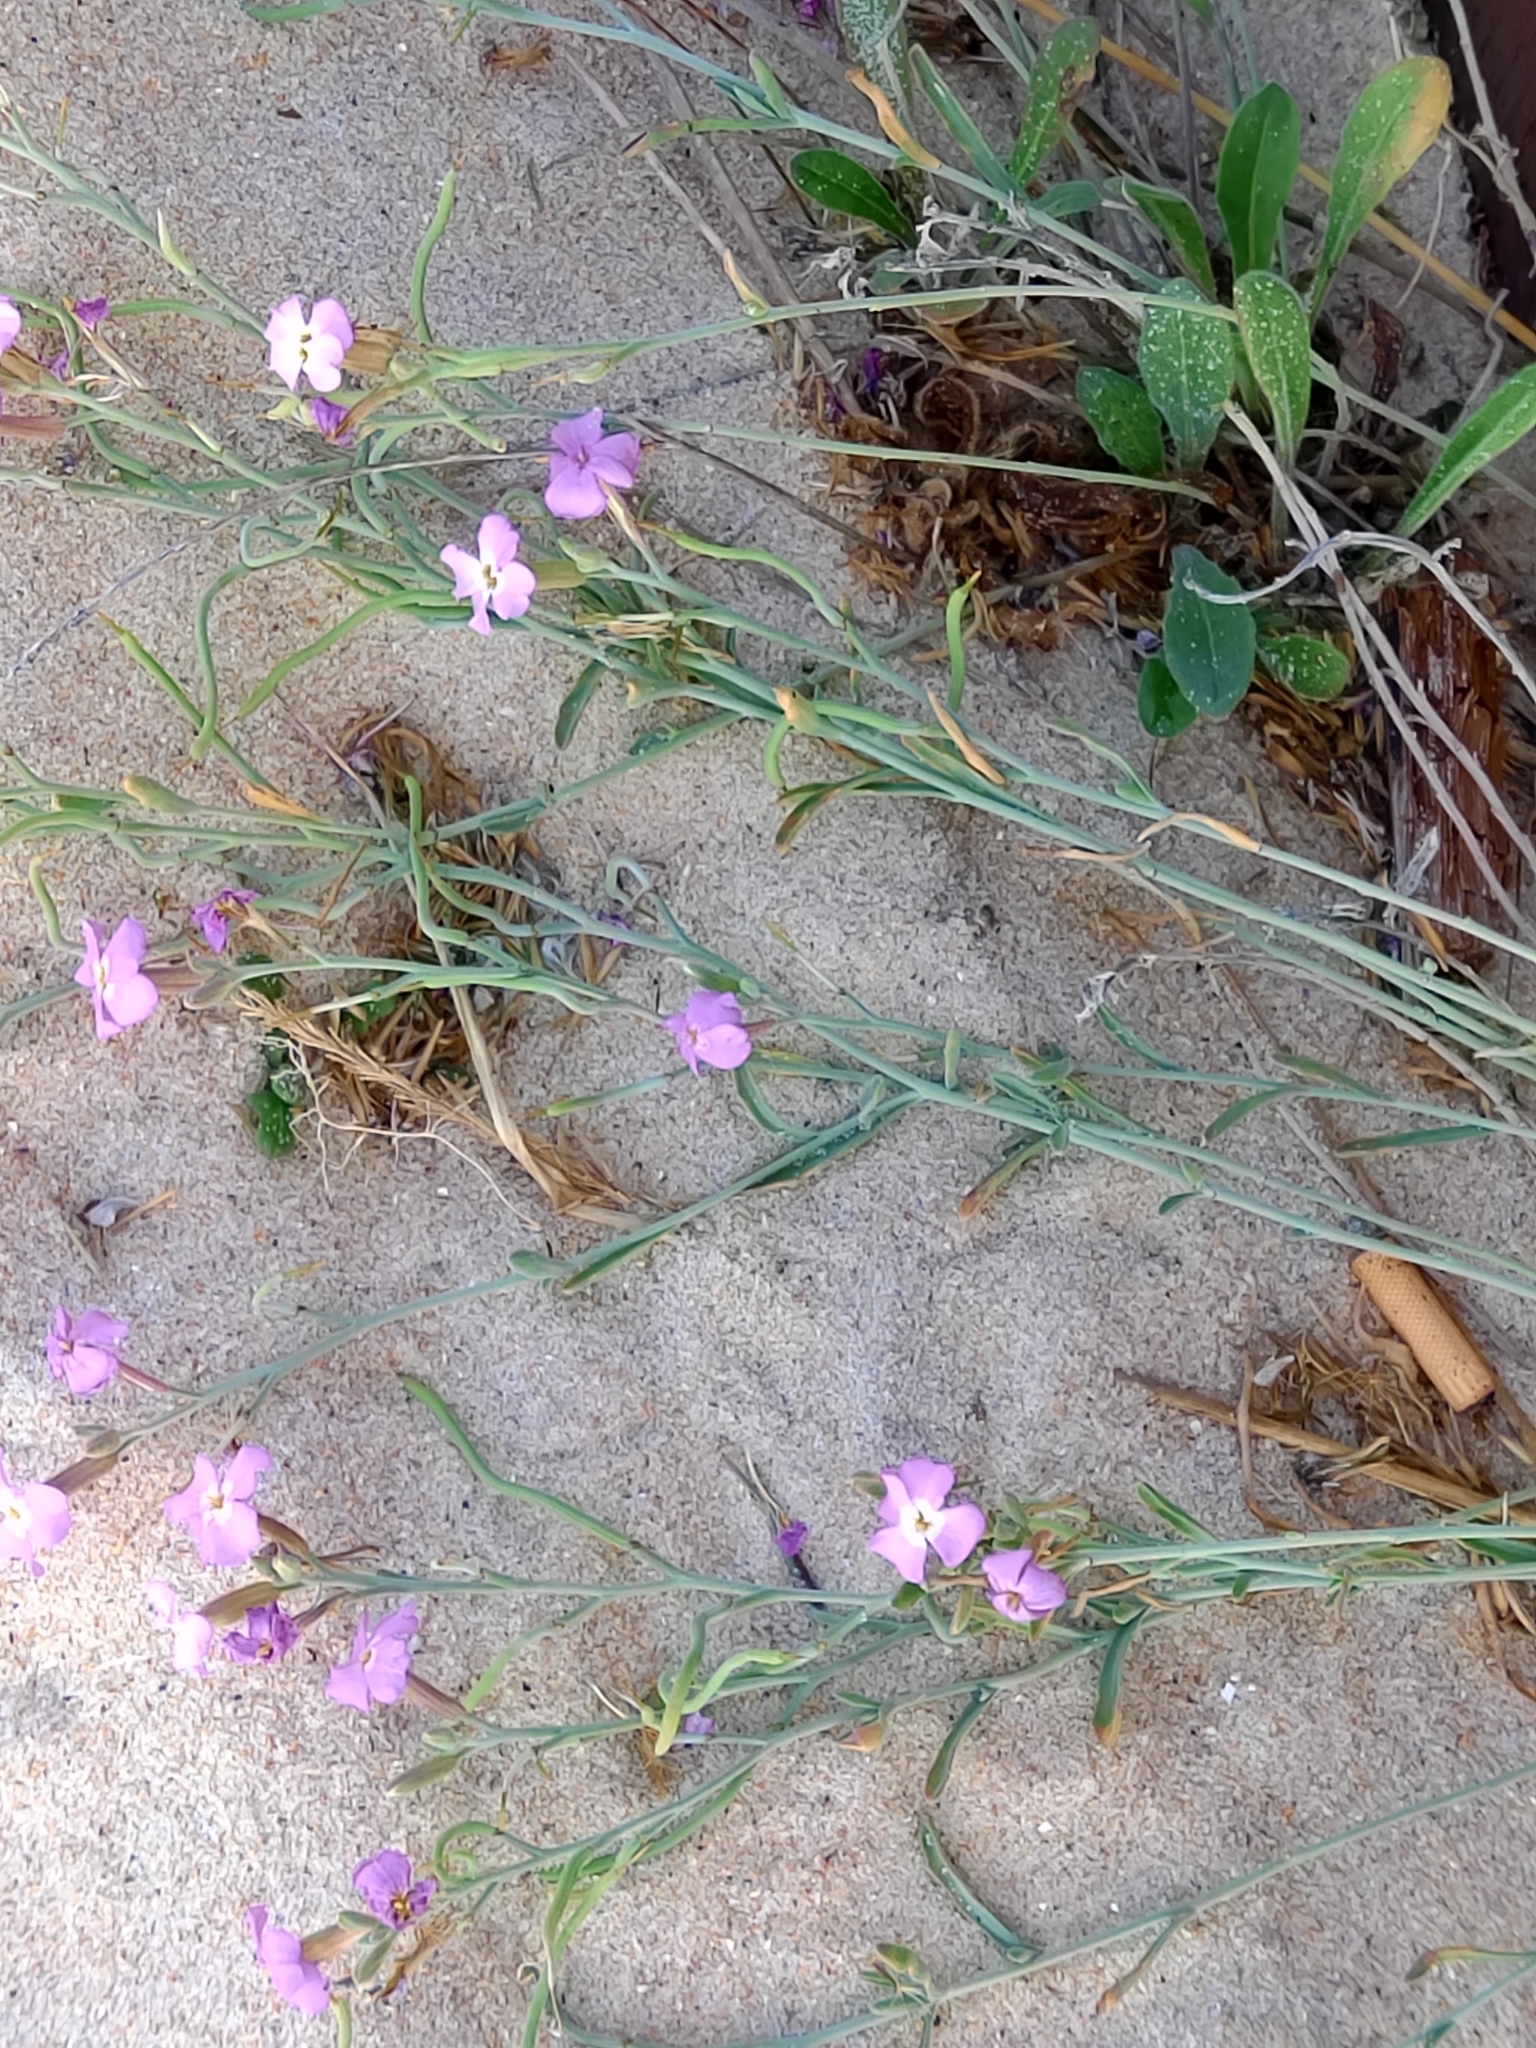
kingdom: Plantae
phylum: Tracheophyta
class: Magnoliopsida
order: Brassicales
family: Brassicaceae
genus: Marcuskochia
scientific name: Marcuskochia littorea
